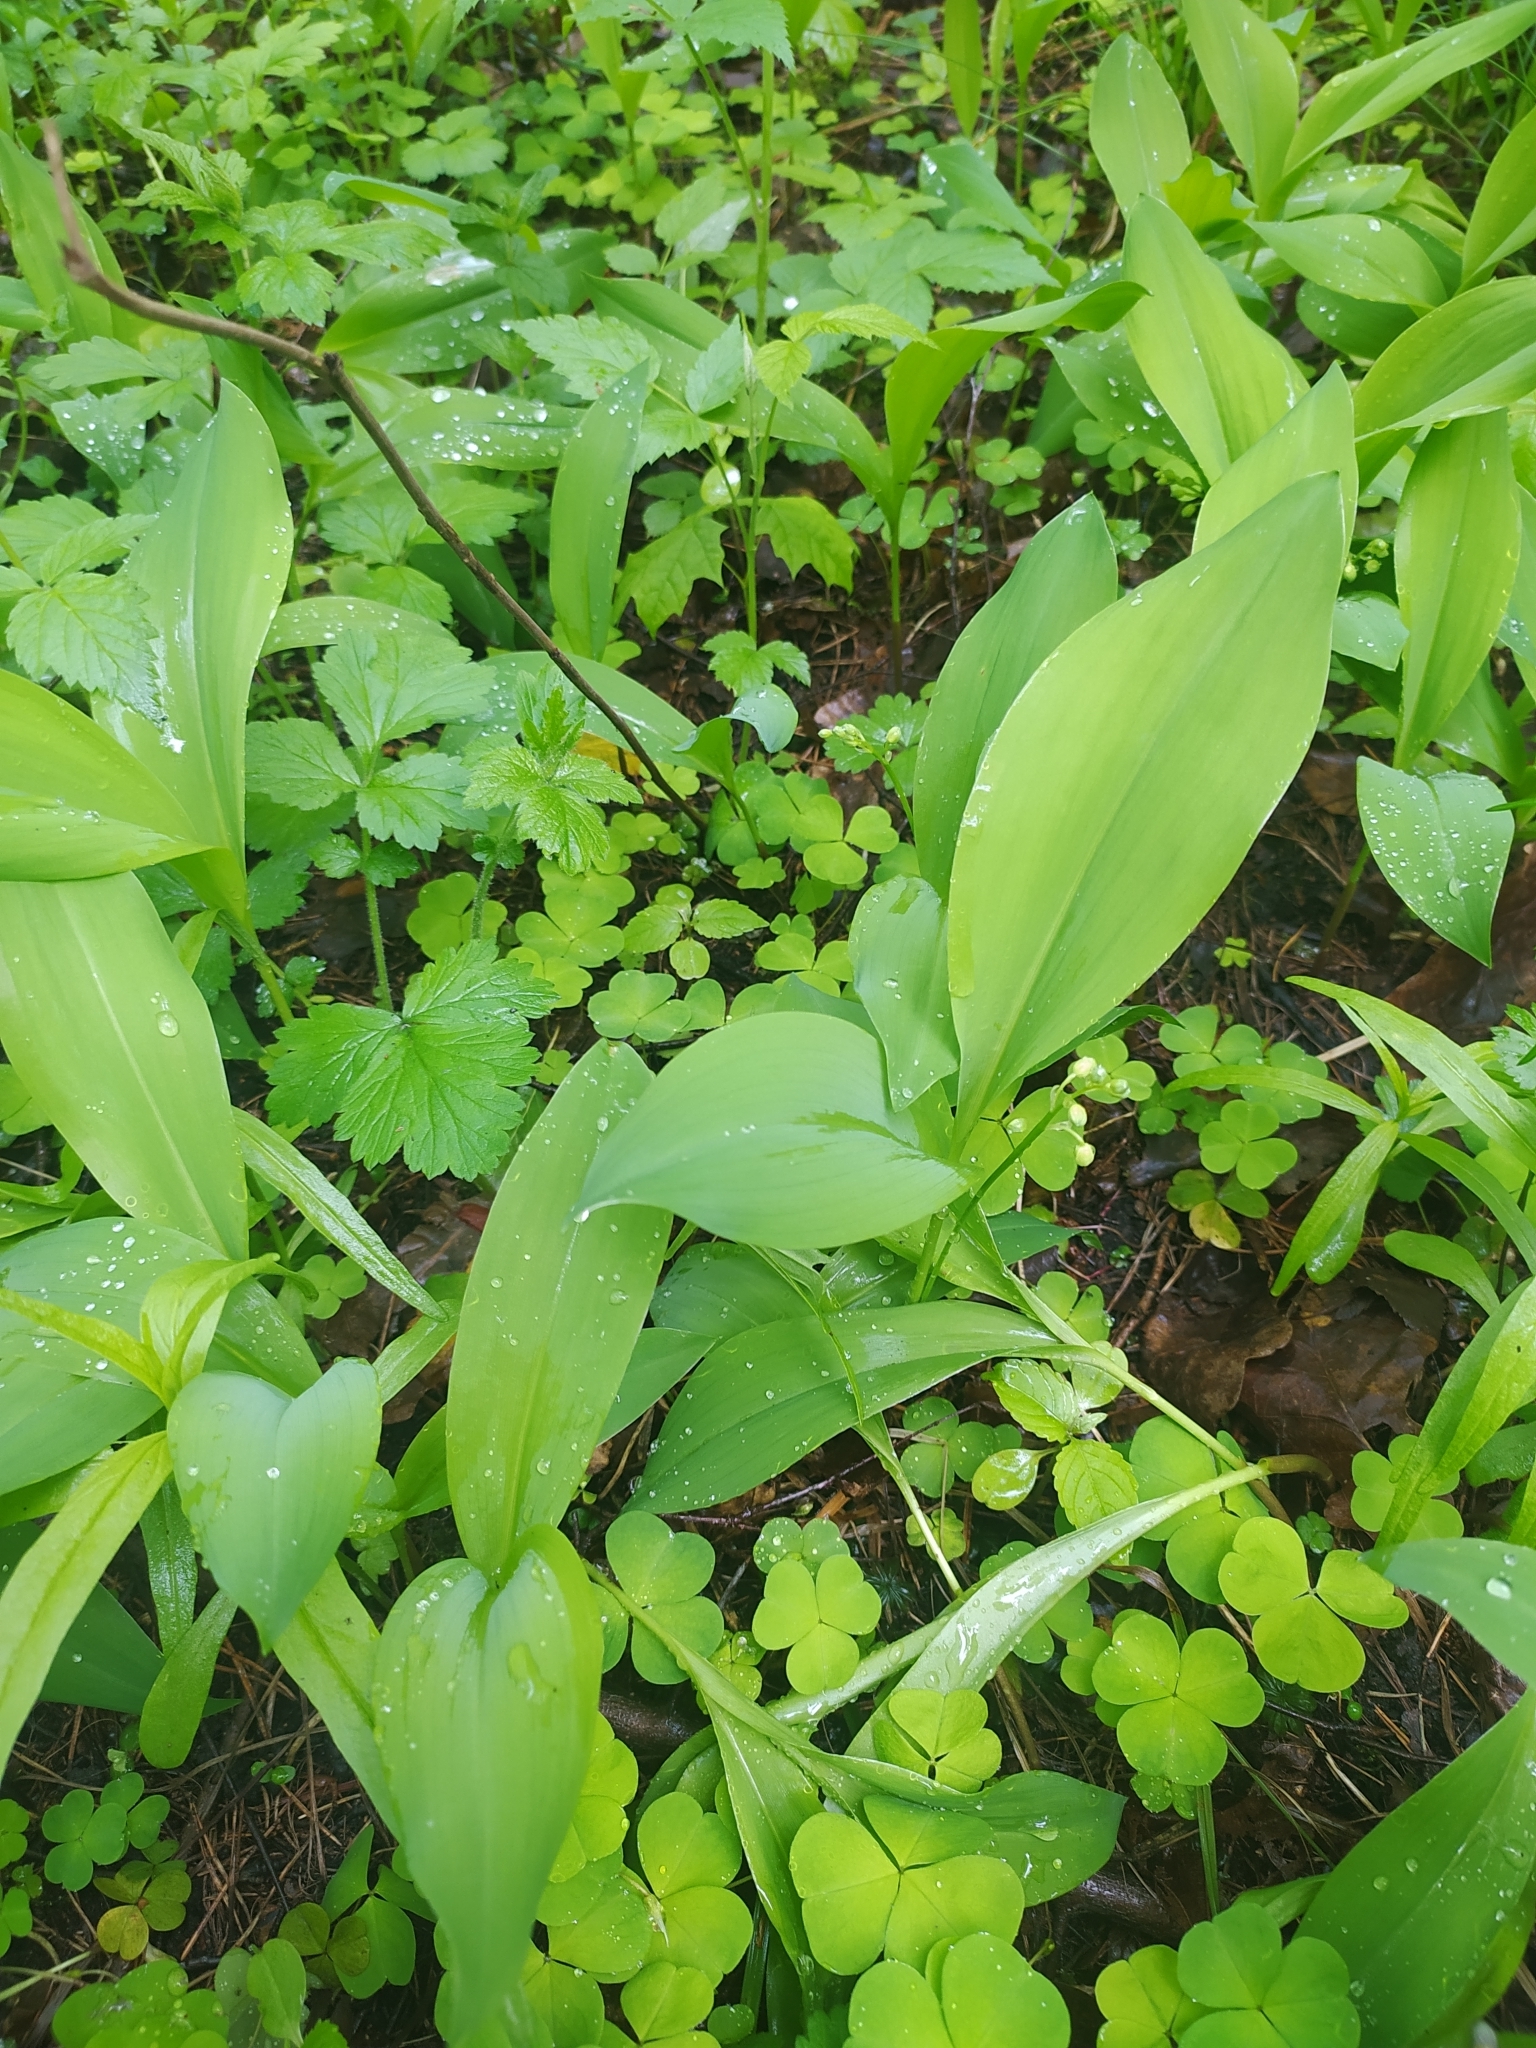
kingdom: Plantae
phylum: Tracheophyta
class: Liliopsida
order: Asparagales
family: Asparagaceae
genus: Convallaria
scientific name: Convallaria majalis
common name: Lily-of-the-valley
